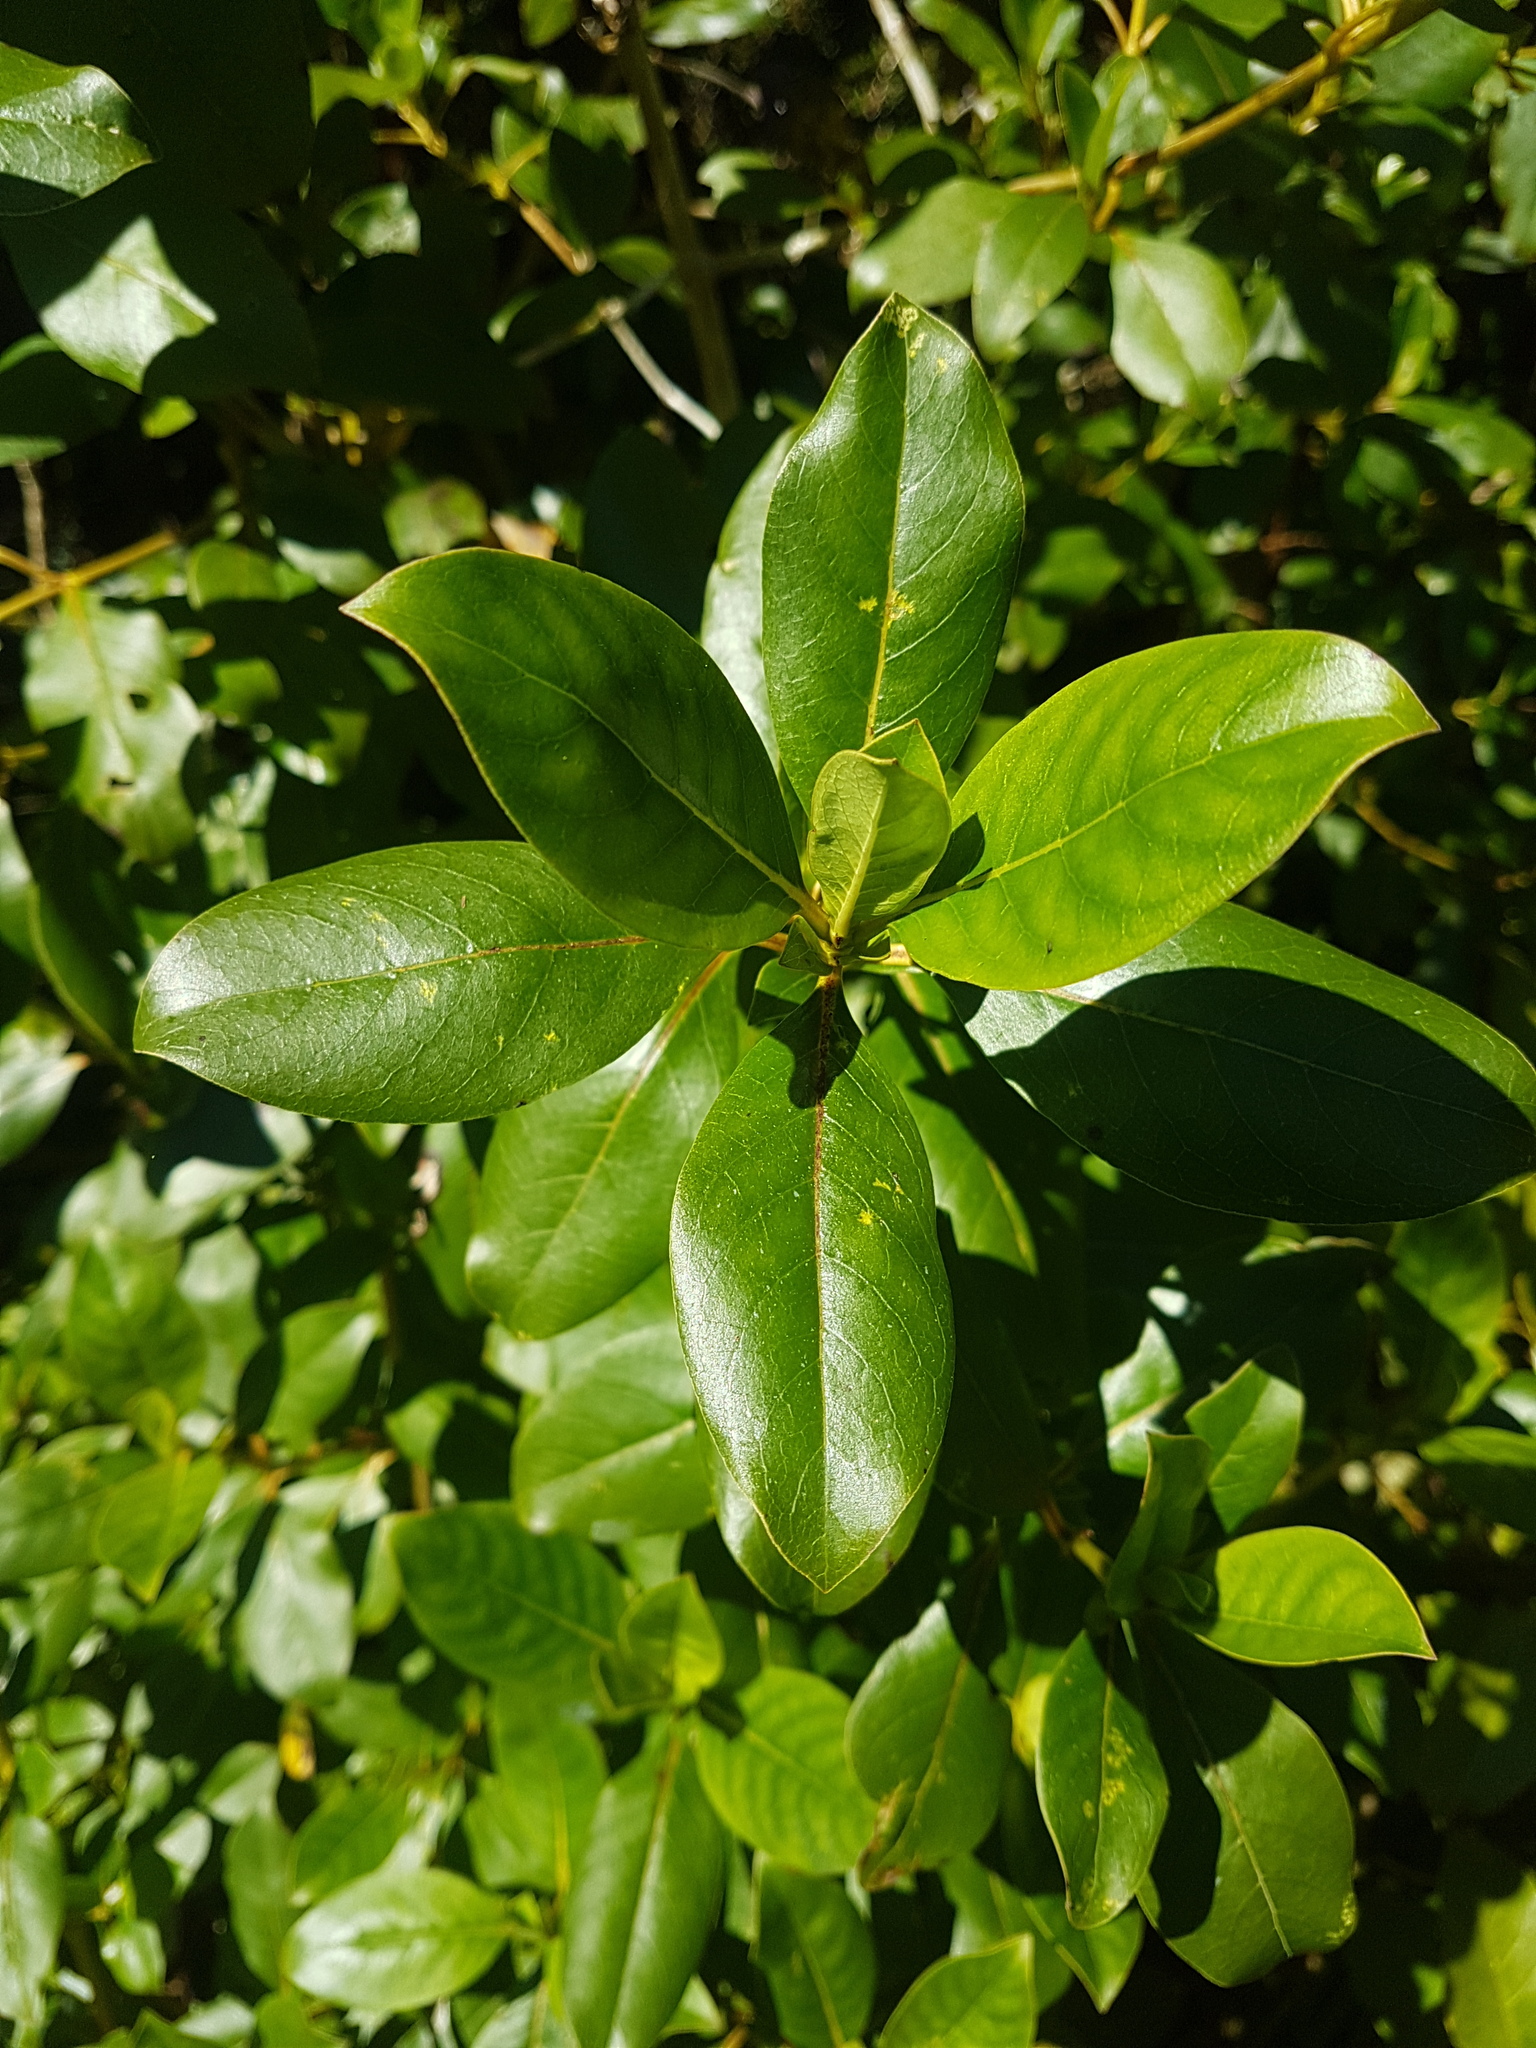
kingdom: Plantae
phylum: Tracheophyta
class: Magnoliopsida
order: Gentianales
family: Rubiaceae
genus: Coprosma
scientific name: Coprosma robusta
